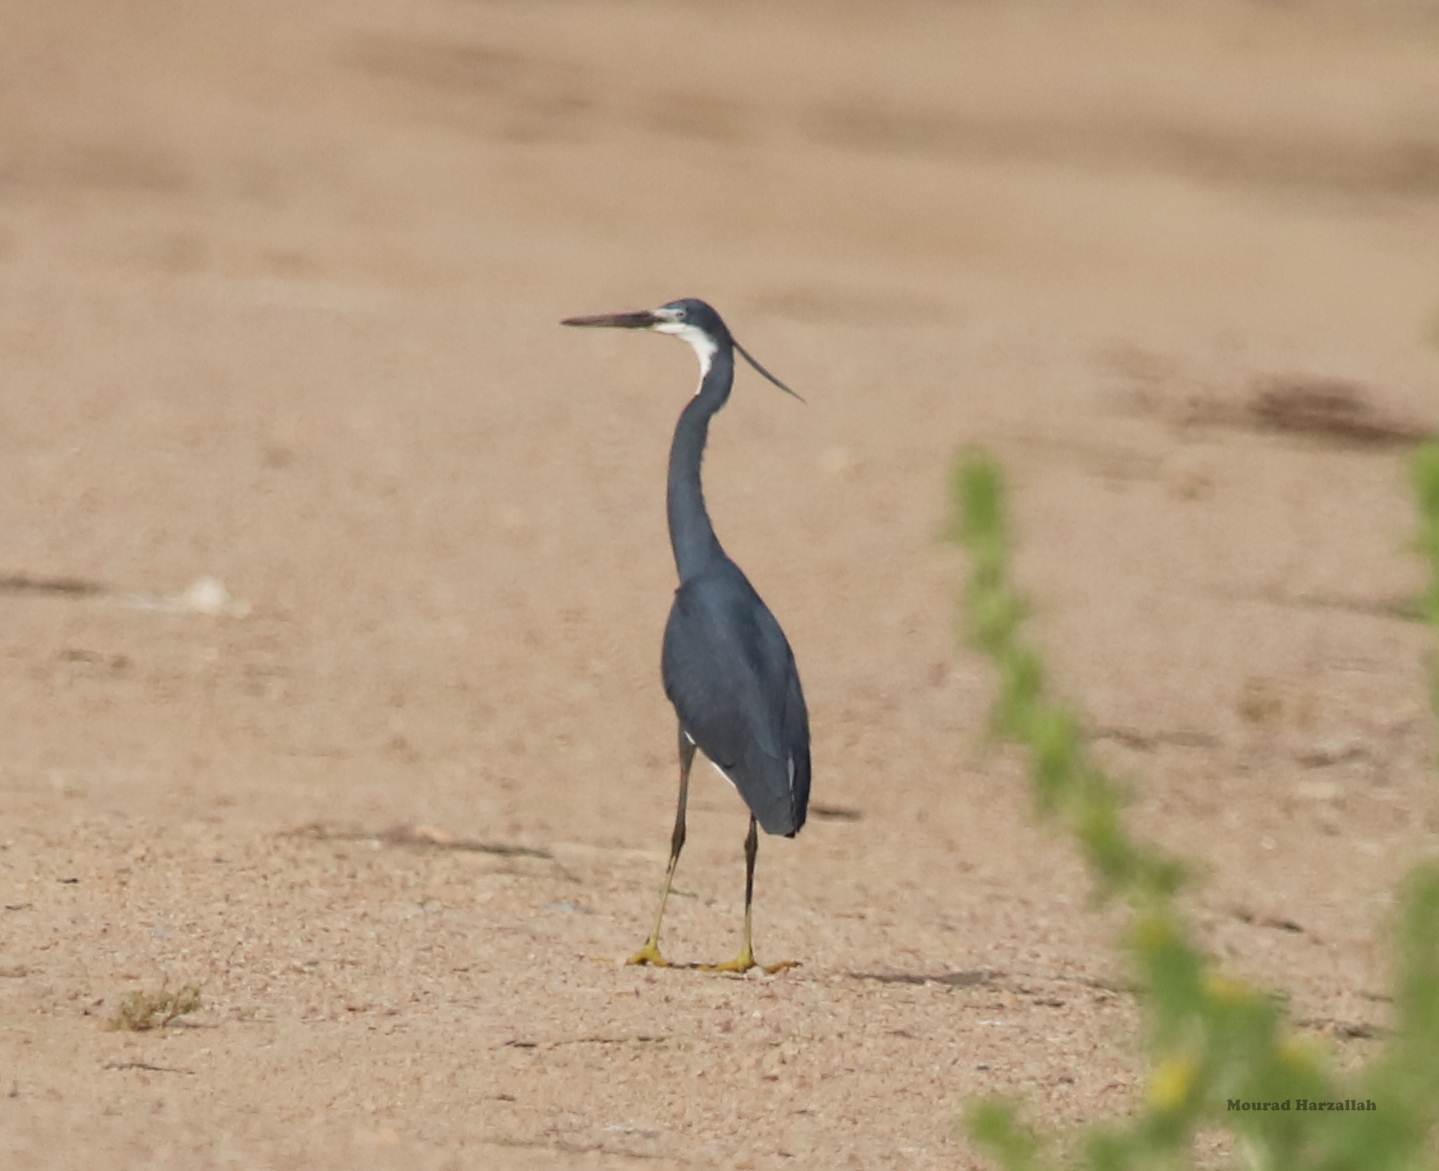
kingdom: Animalia
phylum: Chordata
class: Aves
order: Pelecaniformes
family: Ardeidae
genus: Egretta
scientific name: Egretta gularis
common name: Western reef-heron
